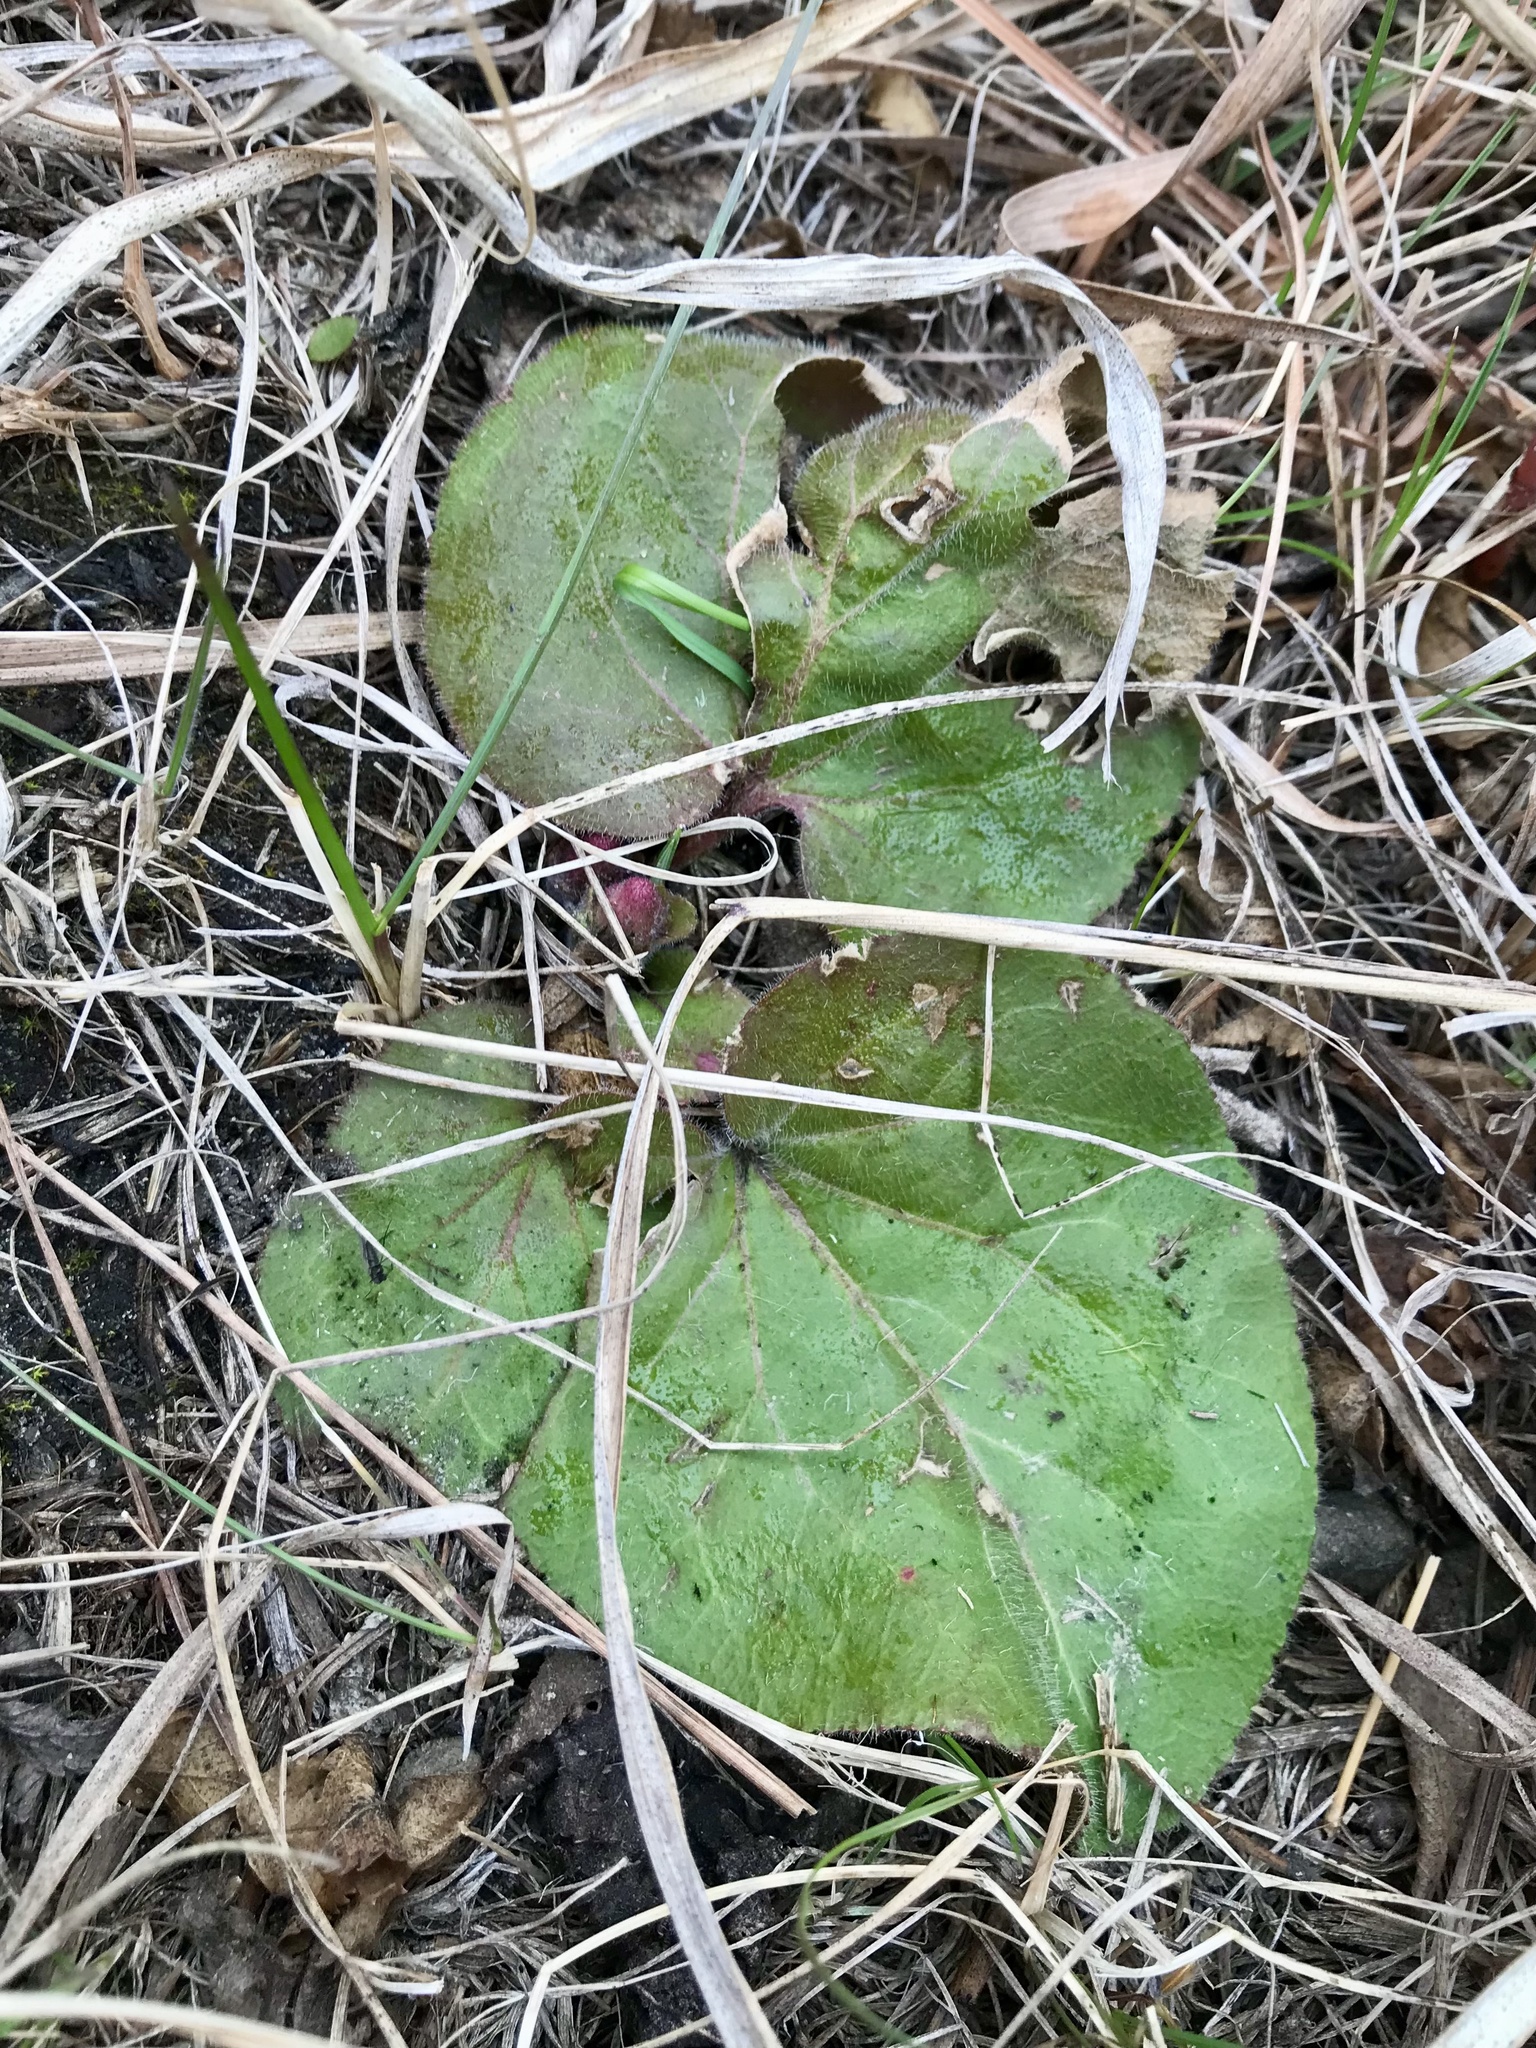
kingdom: Plantae
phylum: Tracheophyta
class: Magnoliopsida
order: Lamiales
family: Plantaginaceae
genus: Synthyris
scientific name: Synthyris bullii
